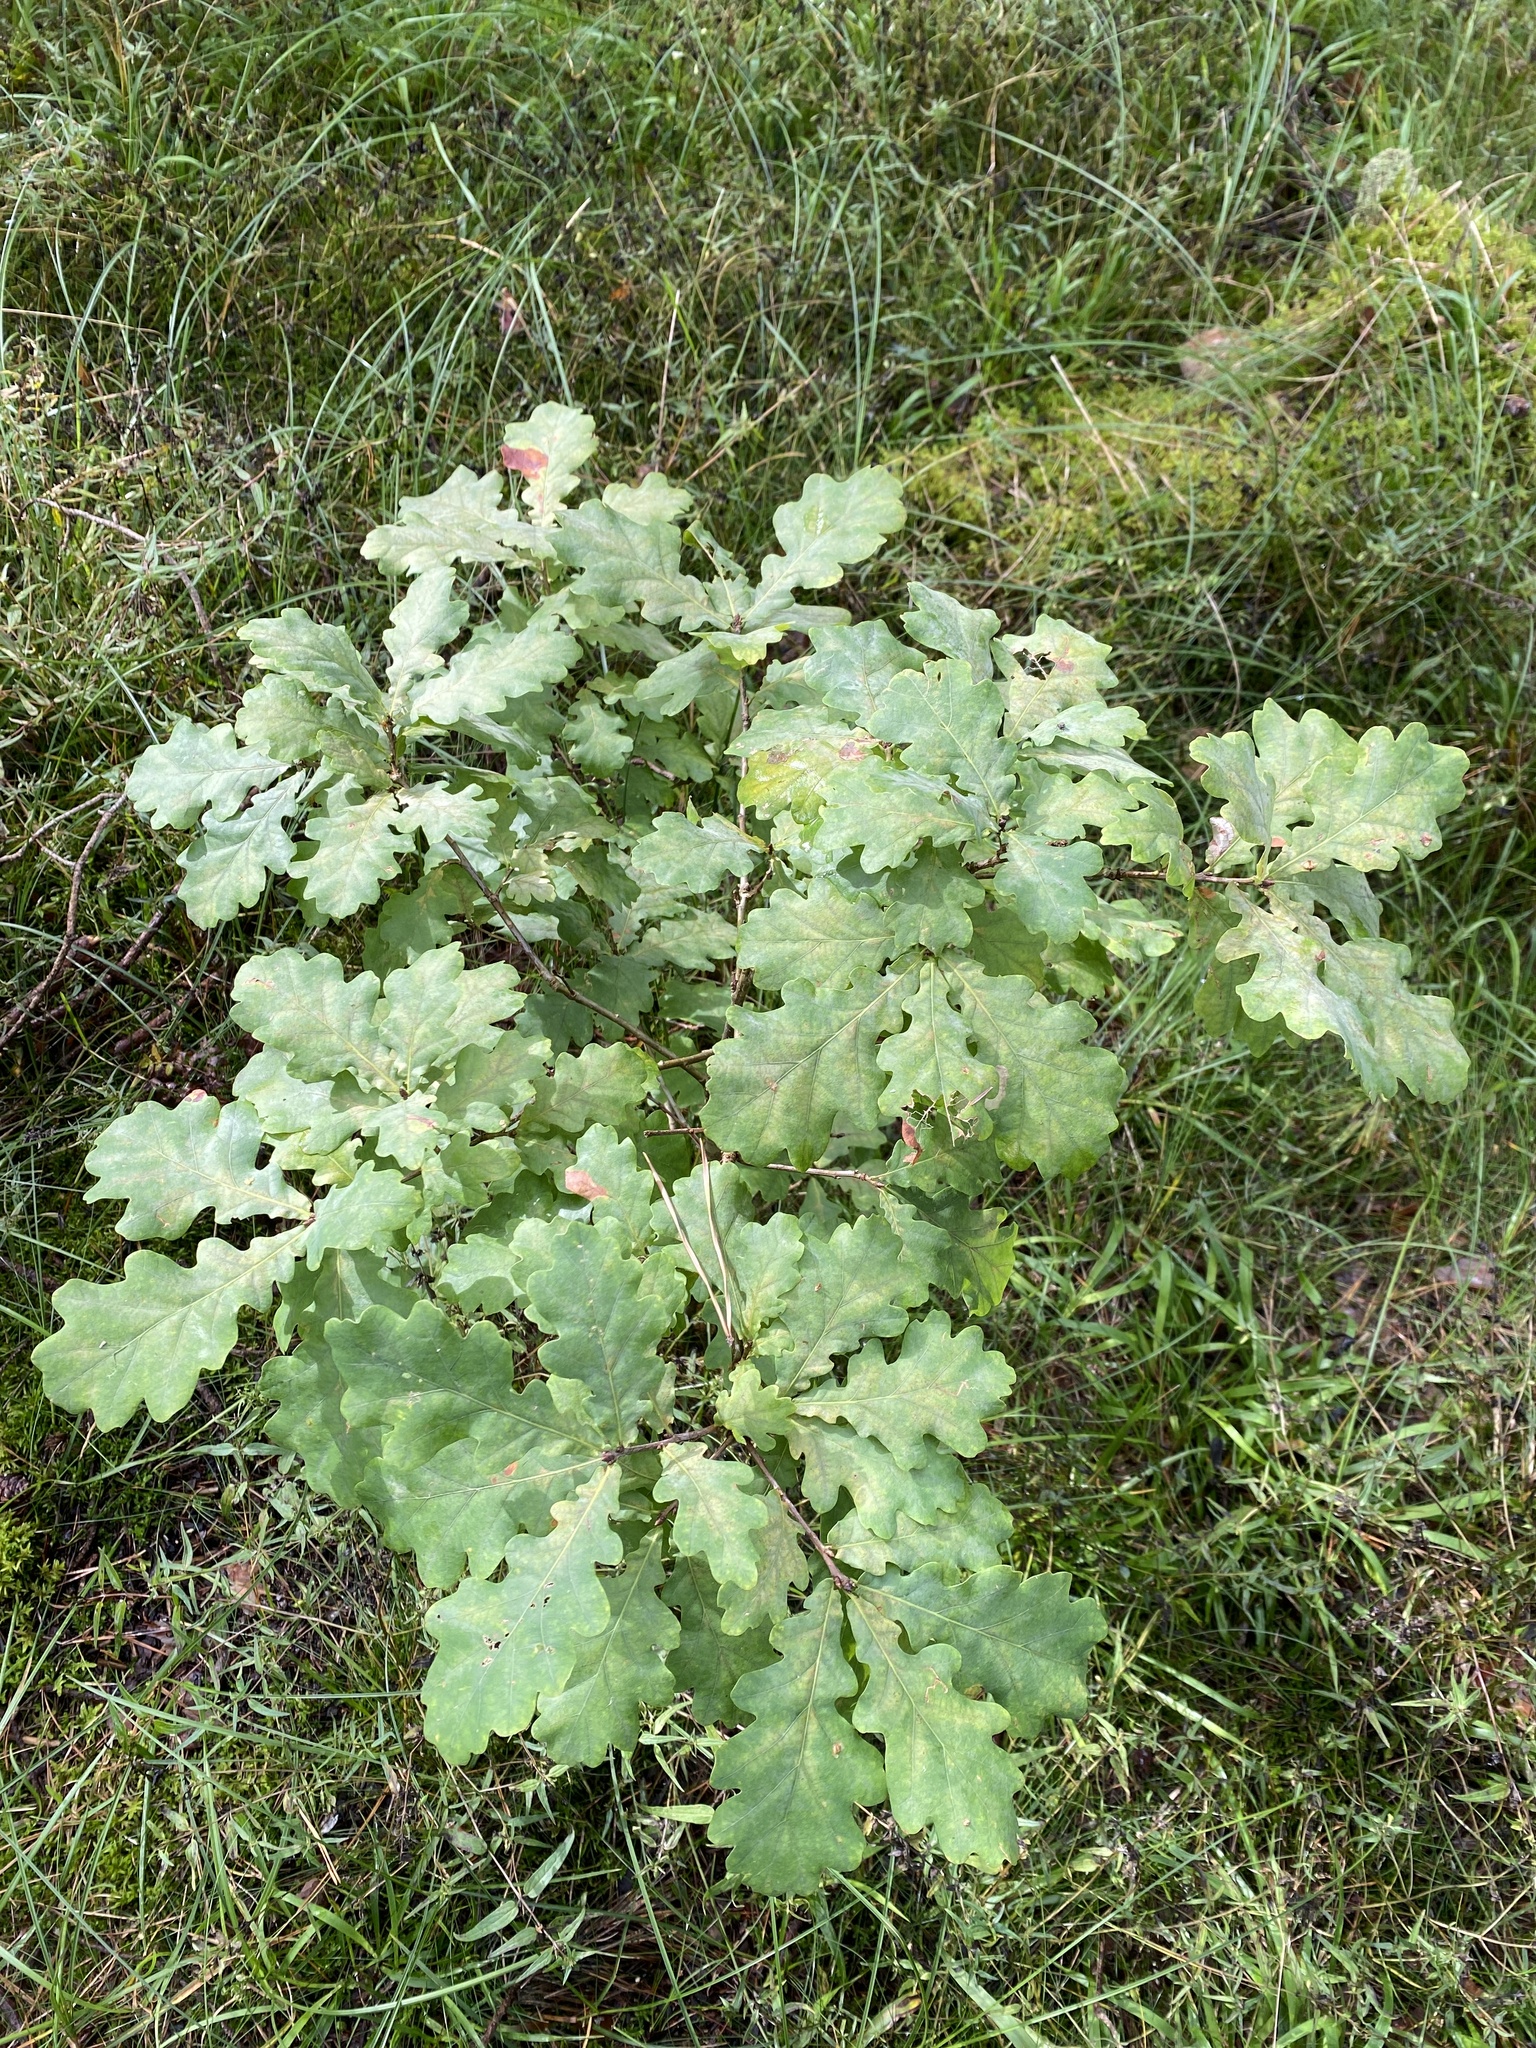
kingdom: Plantae
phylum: Tracheophyta
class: Magnoliopsida
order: Fagales
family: Fagaceae
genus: Quercus
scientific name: Quercus robur
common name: Pedunculate oak
